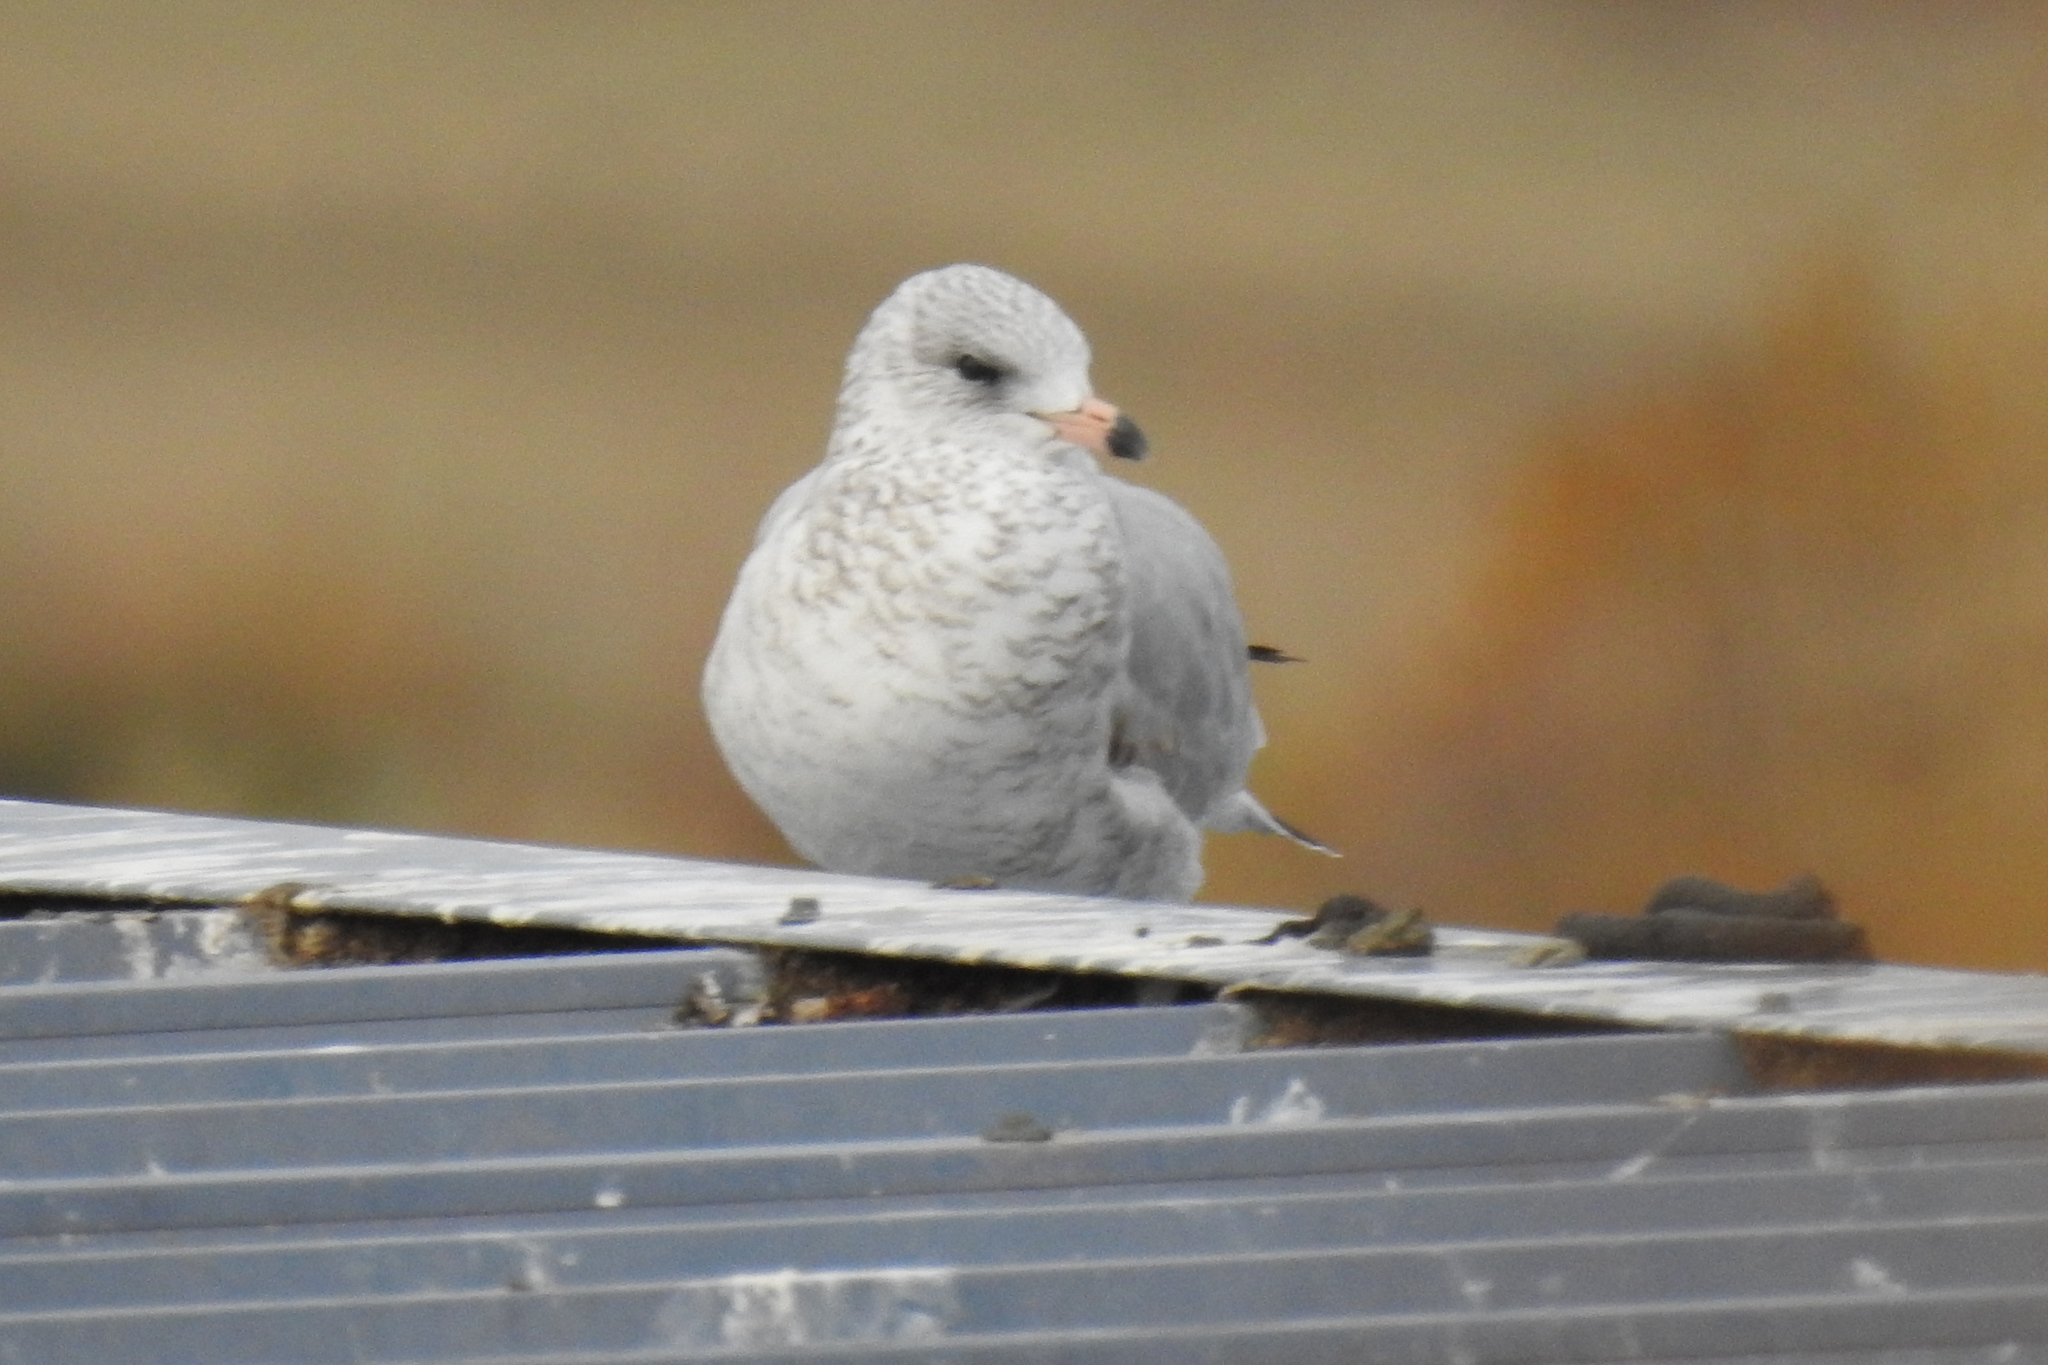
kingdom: Animalia
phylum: Chordata
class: Aves
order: Charadriiformes
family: Laridae
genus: Larus
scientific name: Larus delawarensis
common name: Ring-billed gull
